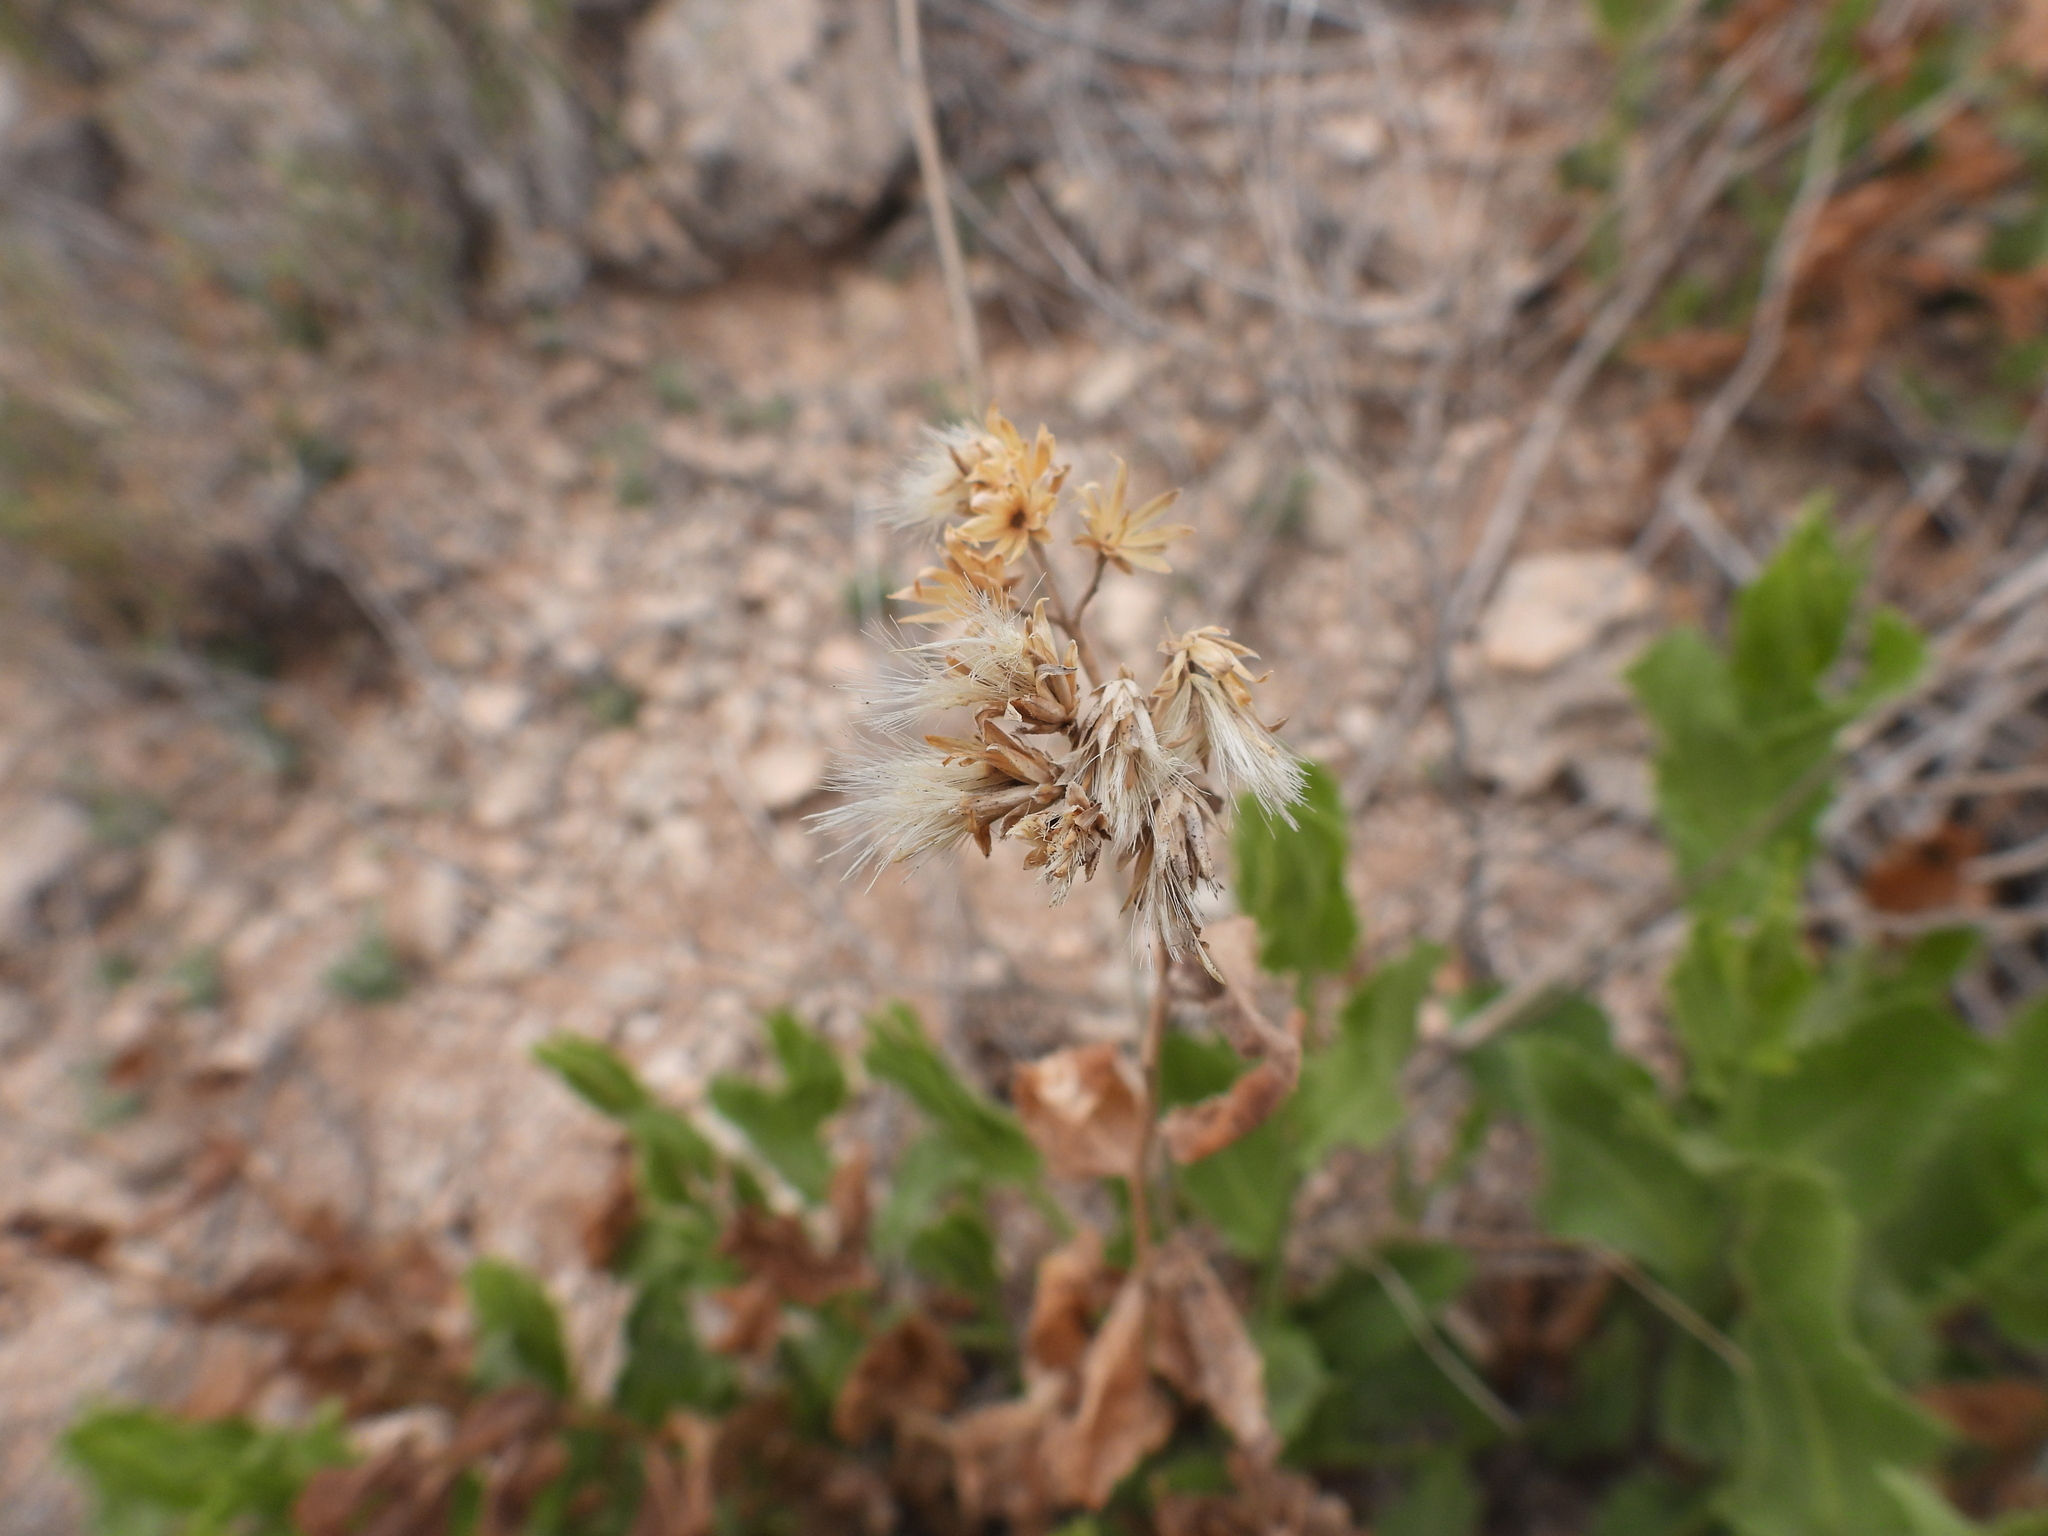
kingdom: Plantae
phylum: Tracheophyta
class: Magnoliopsida
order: Asterales
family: Asteraceae
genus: Acourtia
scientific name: Acourtia wrightii
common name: Brownfoot
